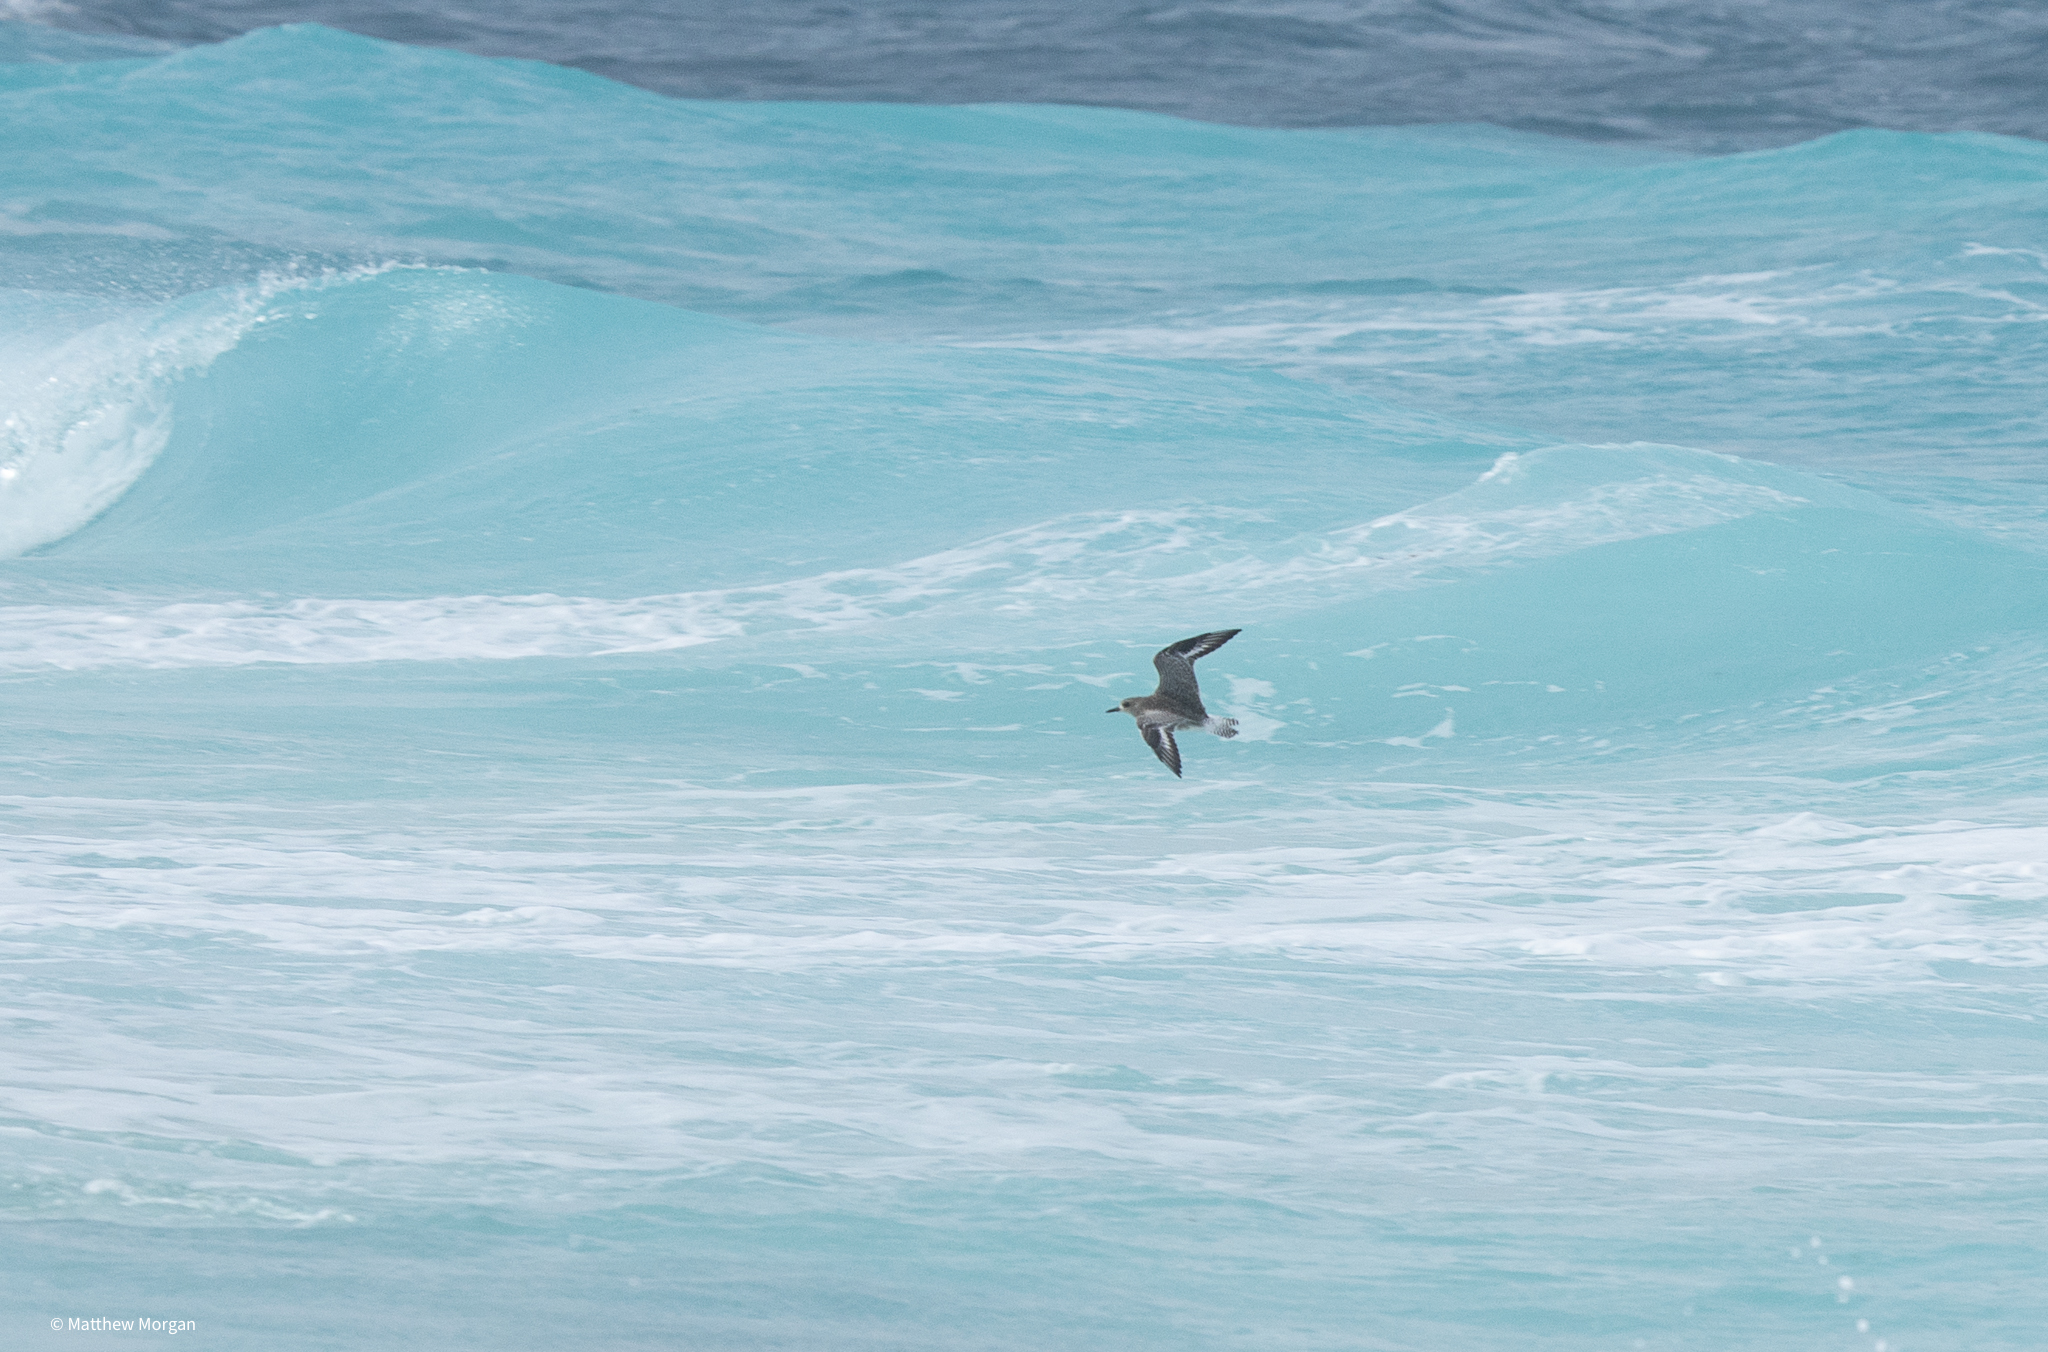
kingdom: Animalia
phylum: Chordata
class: Aves
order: Charadriiformes
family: Charadriidae
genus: Pluvialis
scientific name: Pluvialis squatarola
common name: Grey plover
